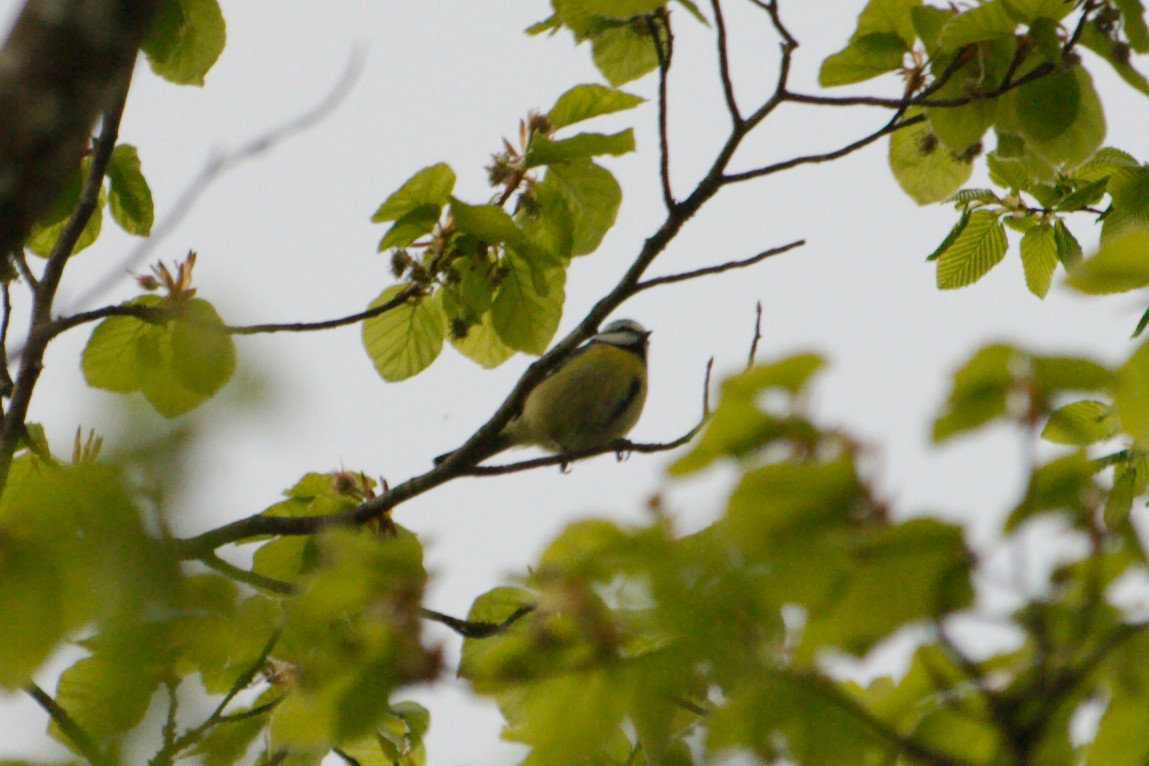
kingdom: Animalia
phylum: Chordata
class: Aves
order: Passeriformes
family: Paridae
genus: Cyanistes
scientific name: Cyanistes caeruleus
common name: Eurasian blue tit
